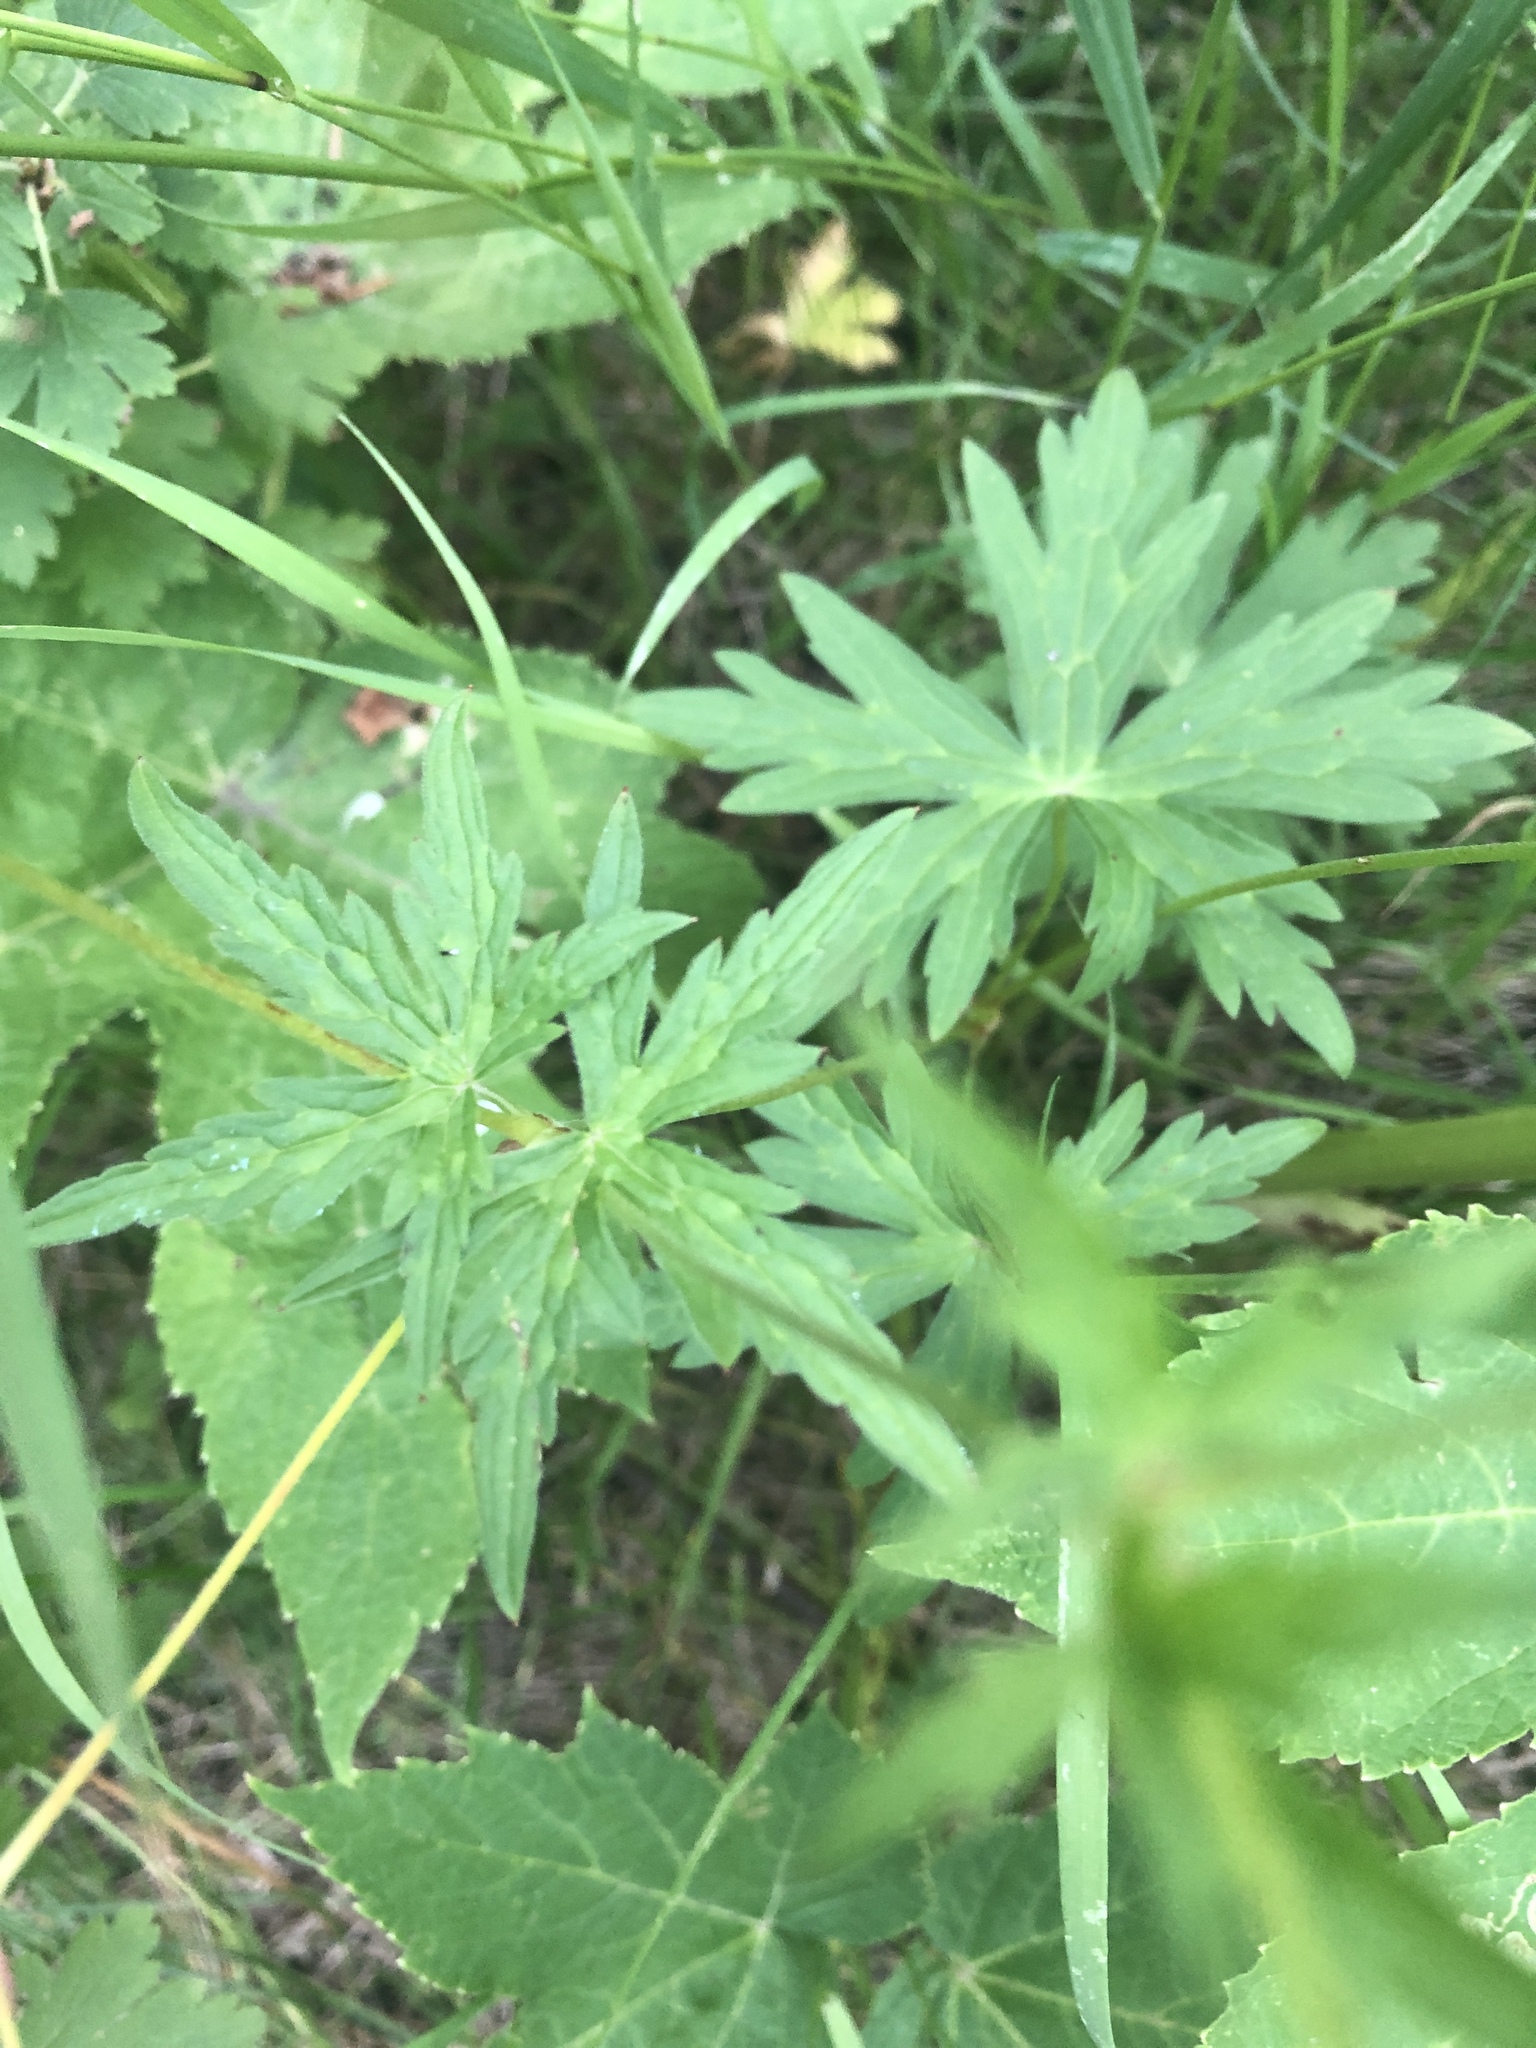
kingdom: Plantae
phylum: Tracheophyta
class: Magnoliopsida
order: Geraniales
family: Geraniaceae
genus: Geranium
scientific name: Geranium richardsonii
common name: Richardson's crane's-bill
